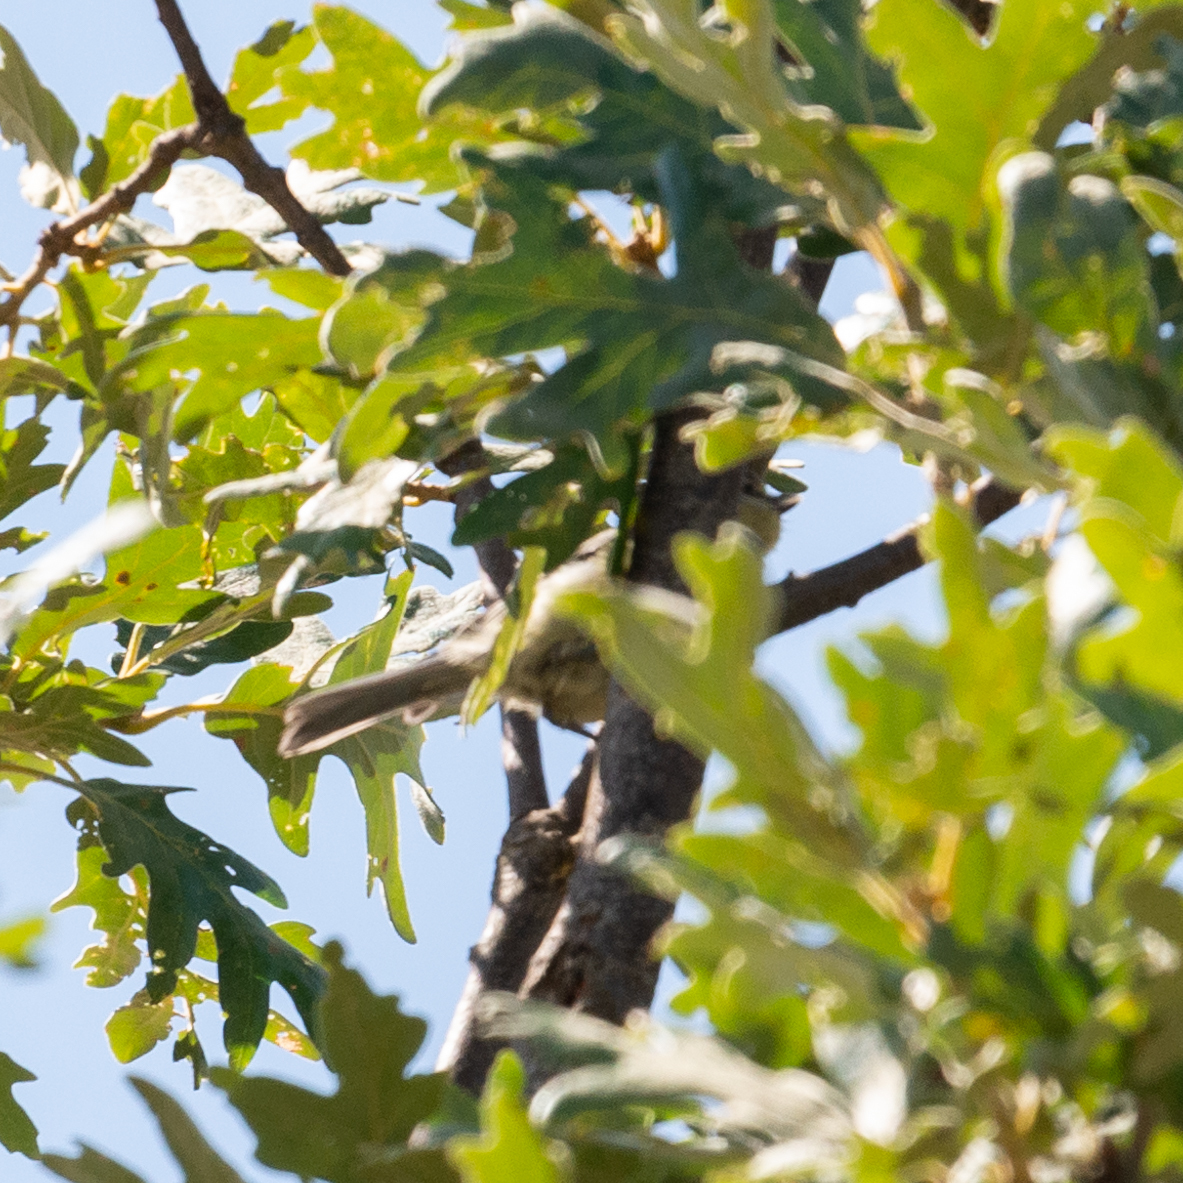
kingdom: Animalia
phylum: Chordata
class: Aves
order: Passeriformes
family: Paridae
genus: Cyanistes
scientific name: Cyanistes caeruleus
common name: Eurasian blue tit
